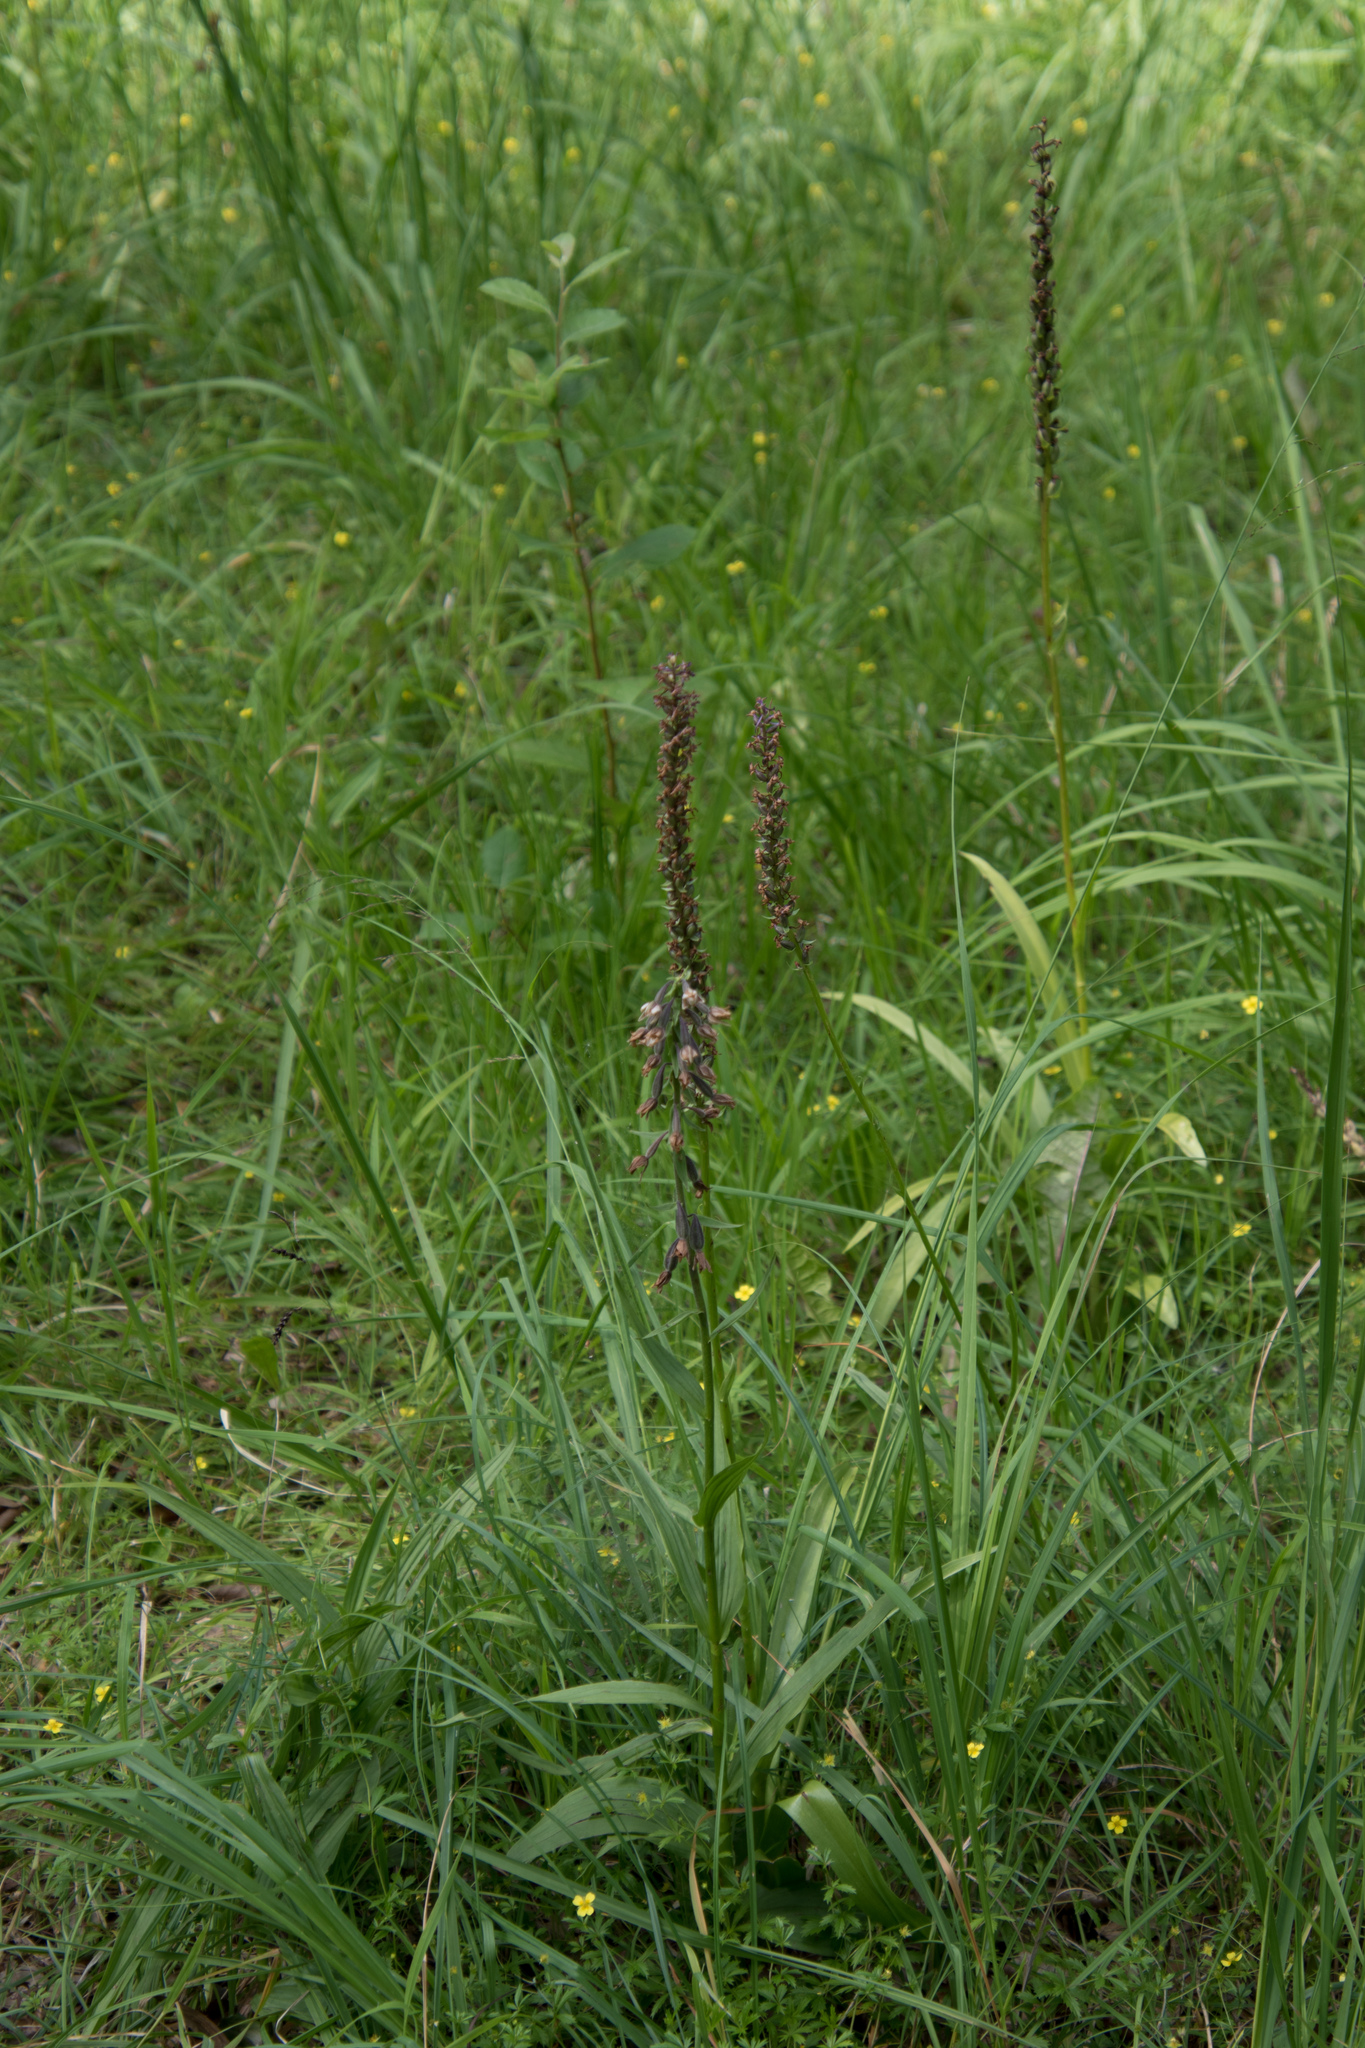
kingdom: Plantae
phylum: Tracheophyta
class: Liliopsida
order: Asparagales
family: Orchidaceae
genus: Epipactis
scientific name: Epipactis palustris
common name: Marsh helleborine
